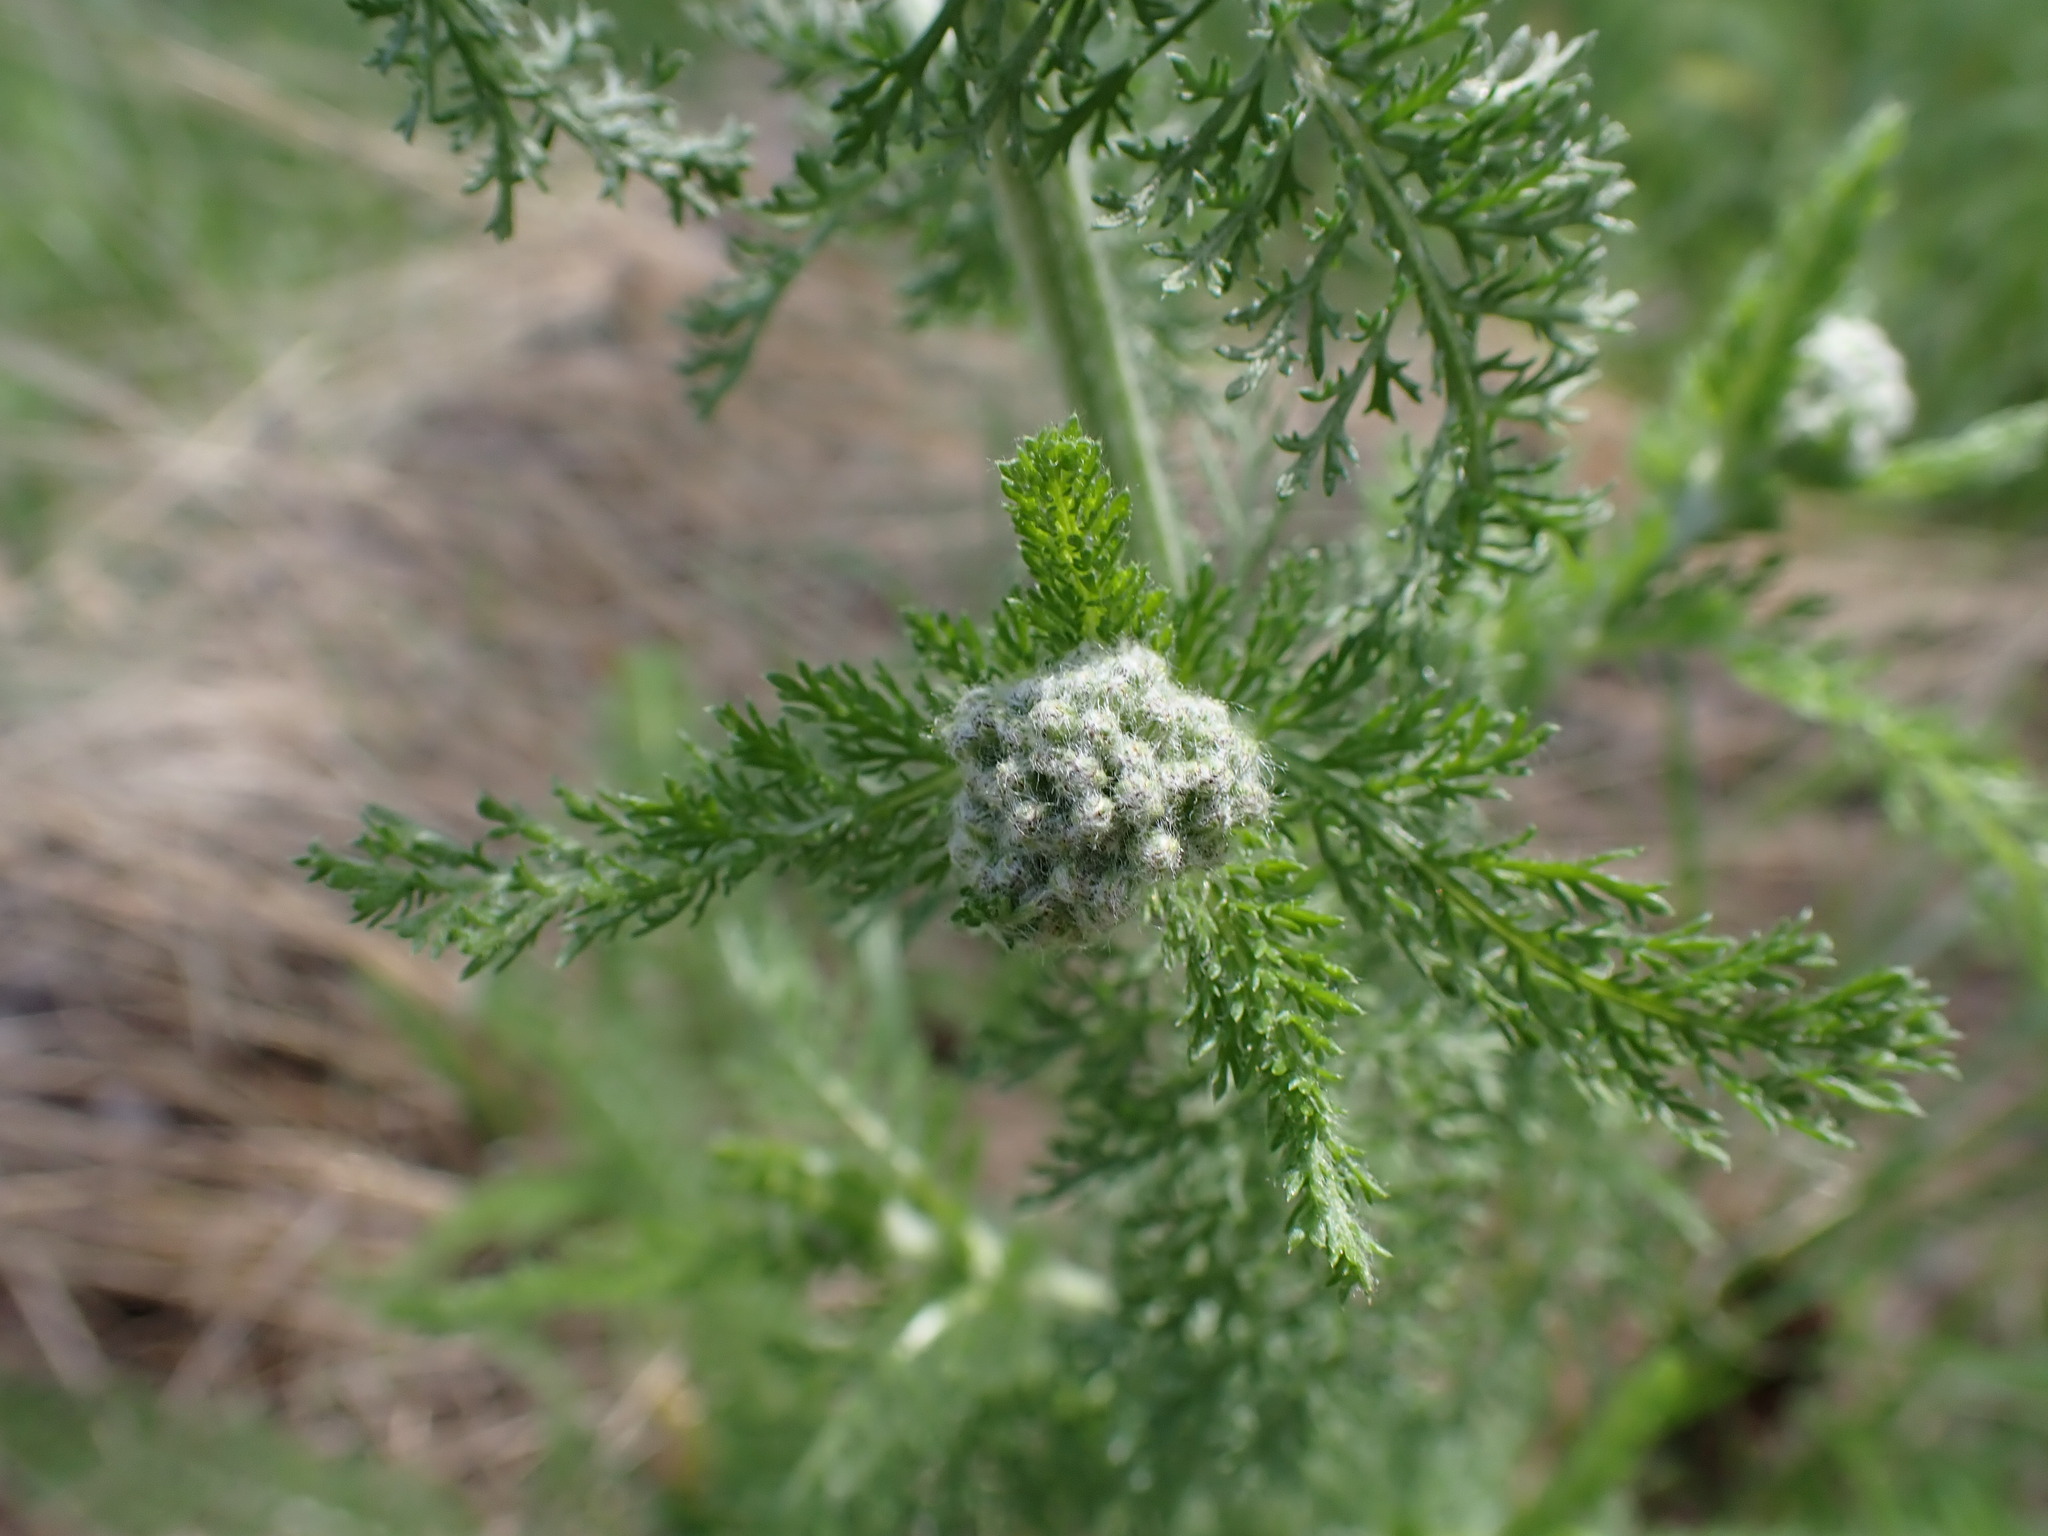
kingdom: Plantae
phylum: Tracheophyta
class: Magnoliopsida
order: Asterales
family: Asteraceae
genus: Achillea
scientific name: Achillea millefolium
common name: Yarrow
